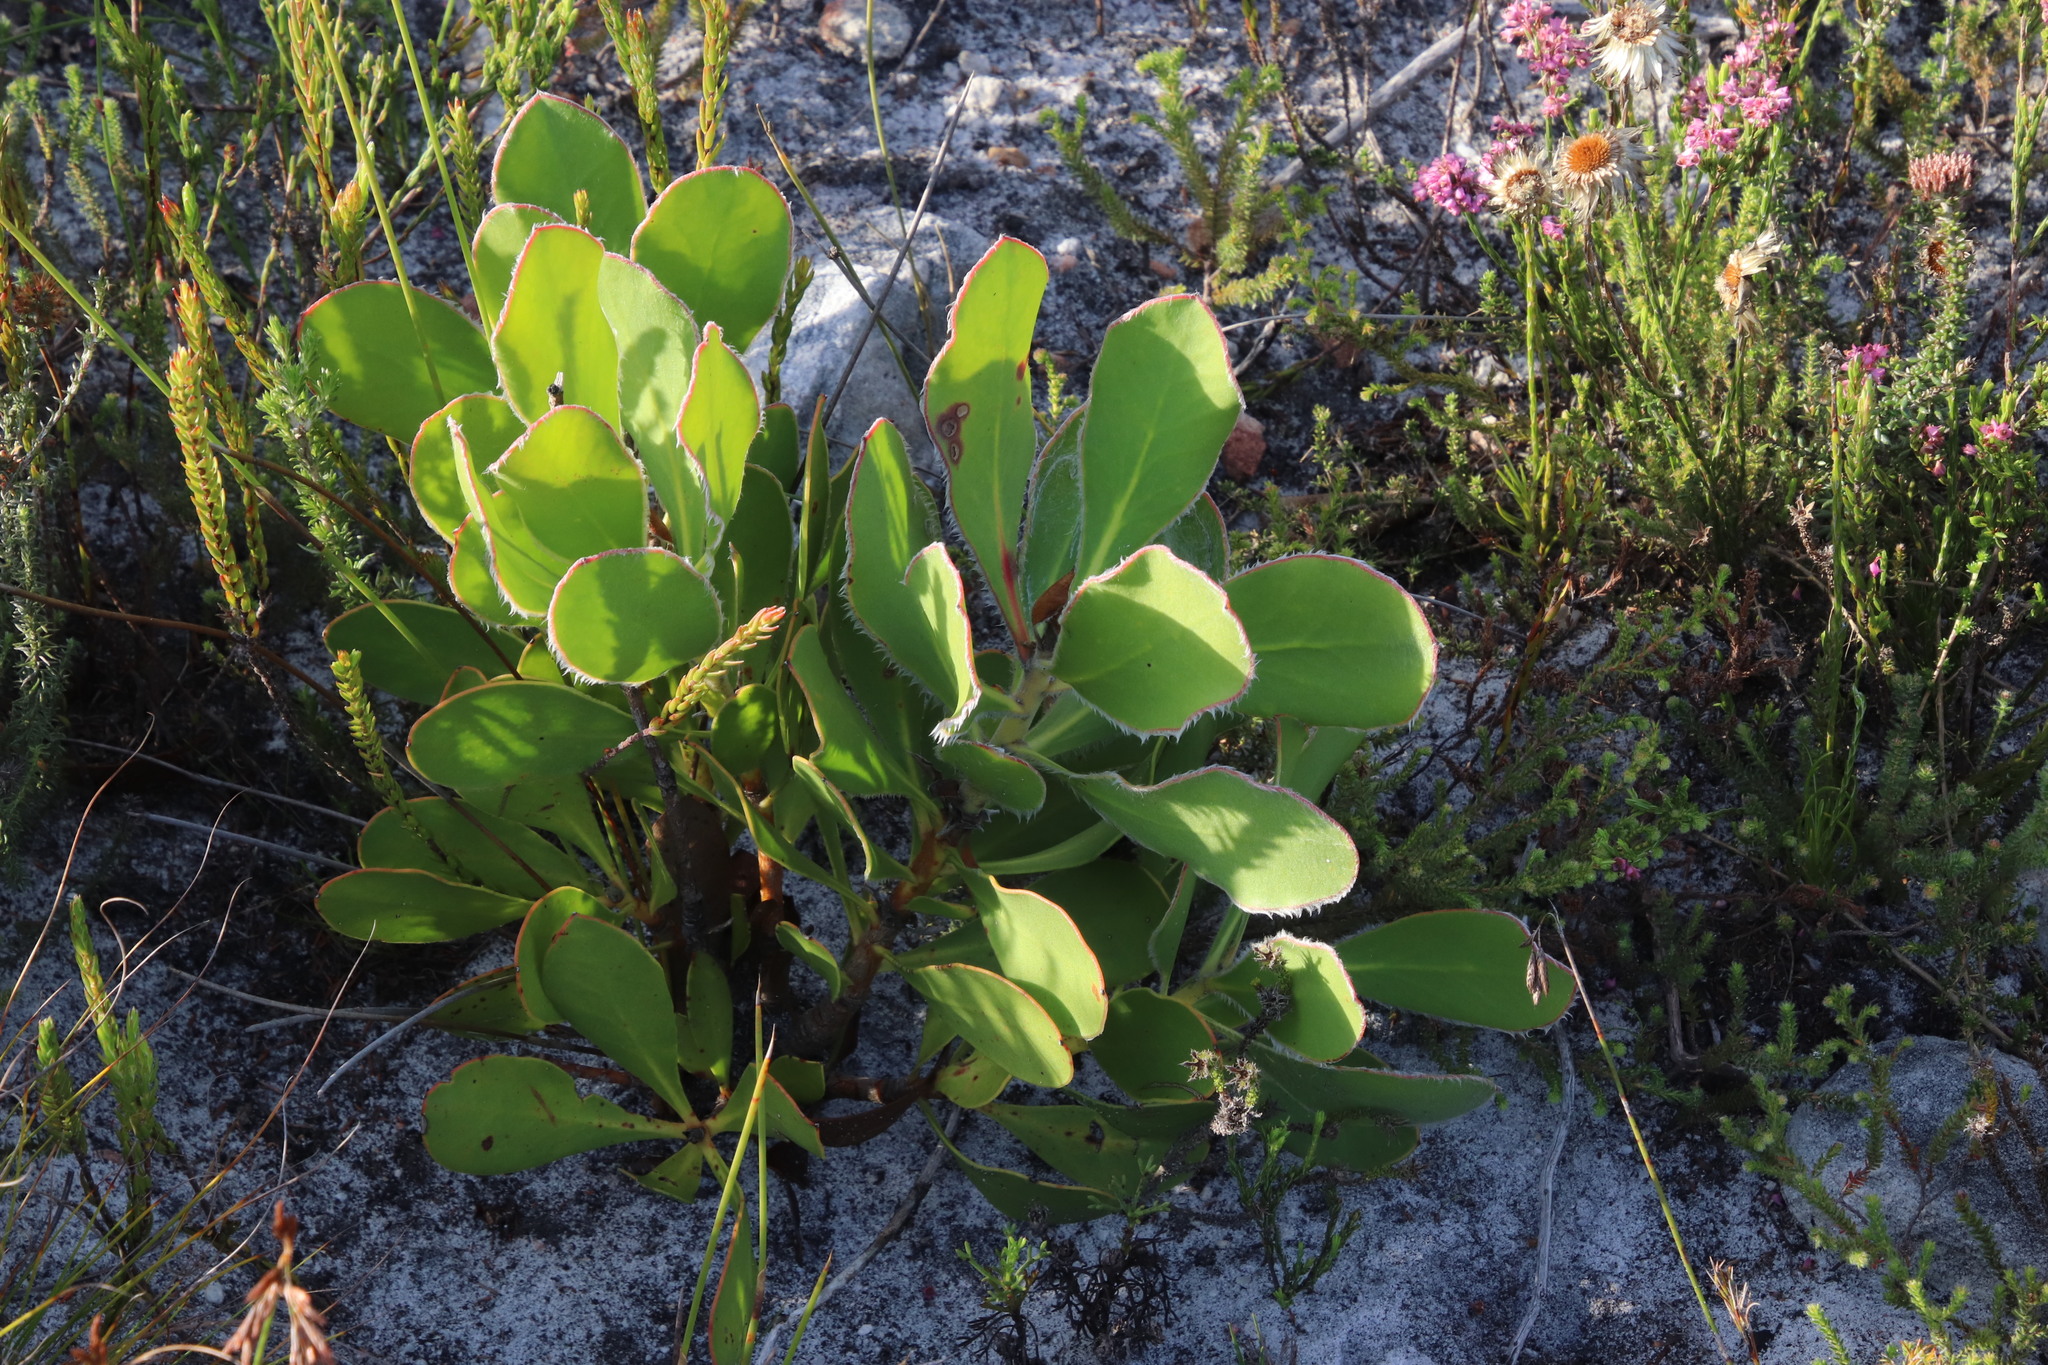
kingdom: Plantae
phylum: Tracheophyta
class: Magnoliopsida
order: Proteales
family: Proteaceae
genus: Protea
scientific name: Protea speciosa
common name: Brown-beard sugarbush
